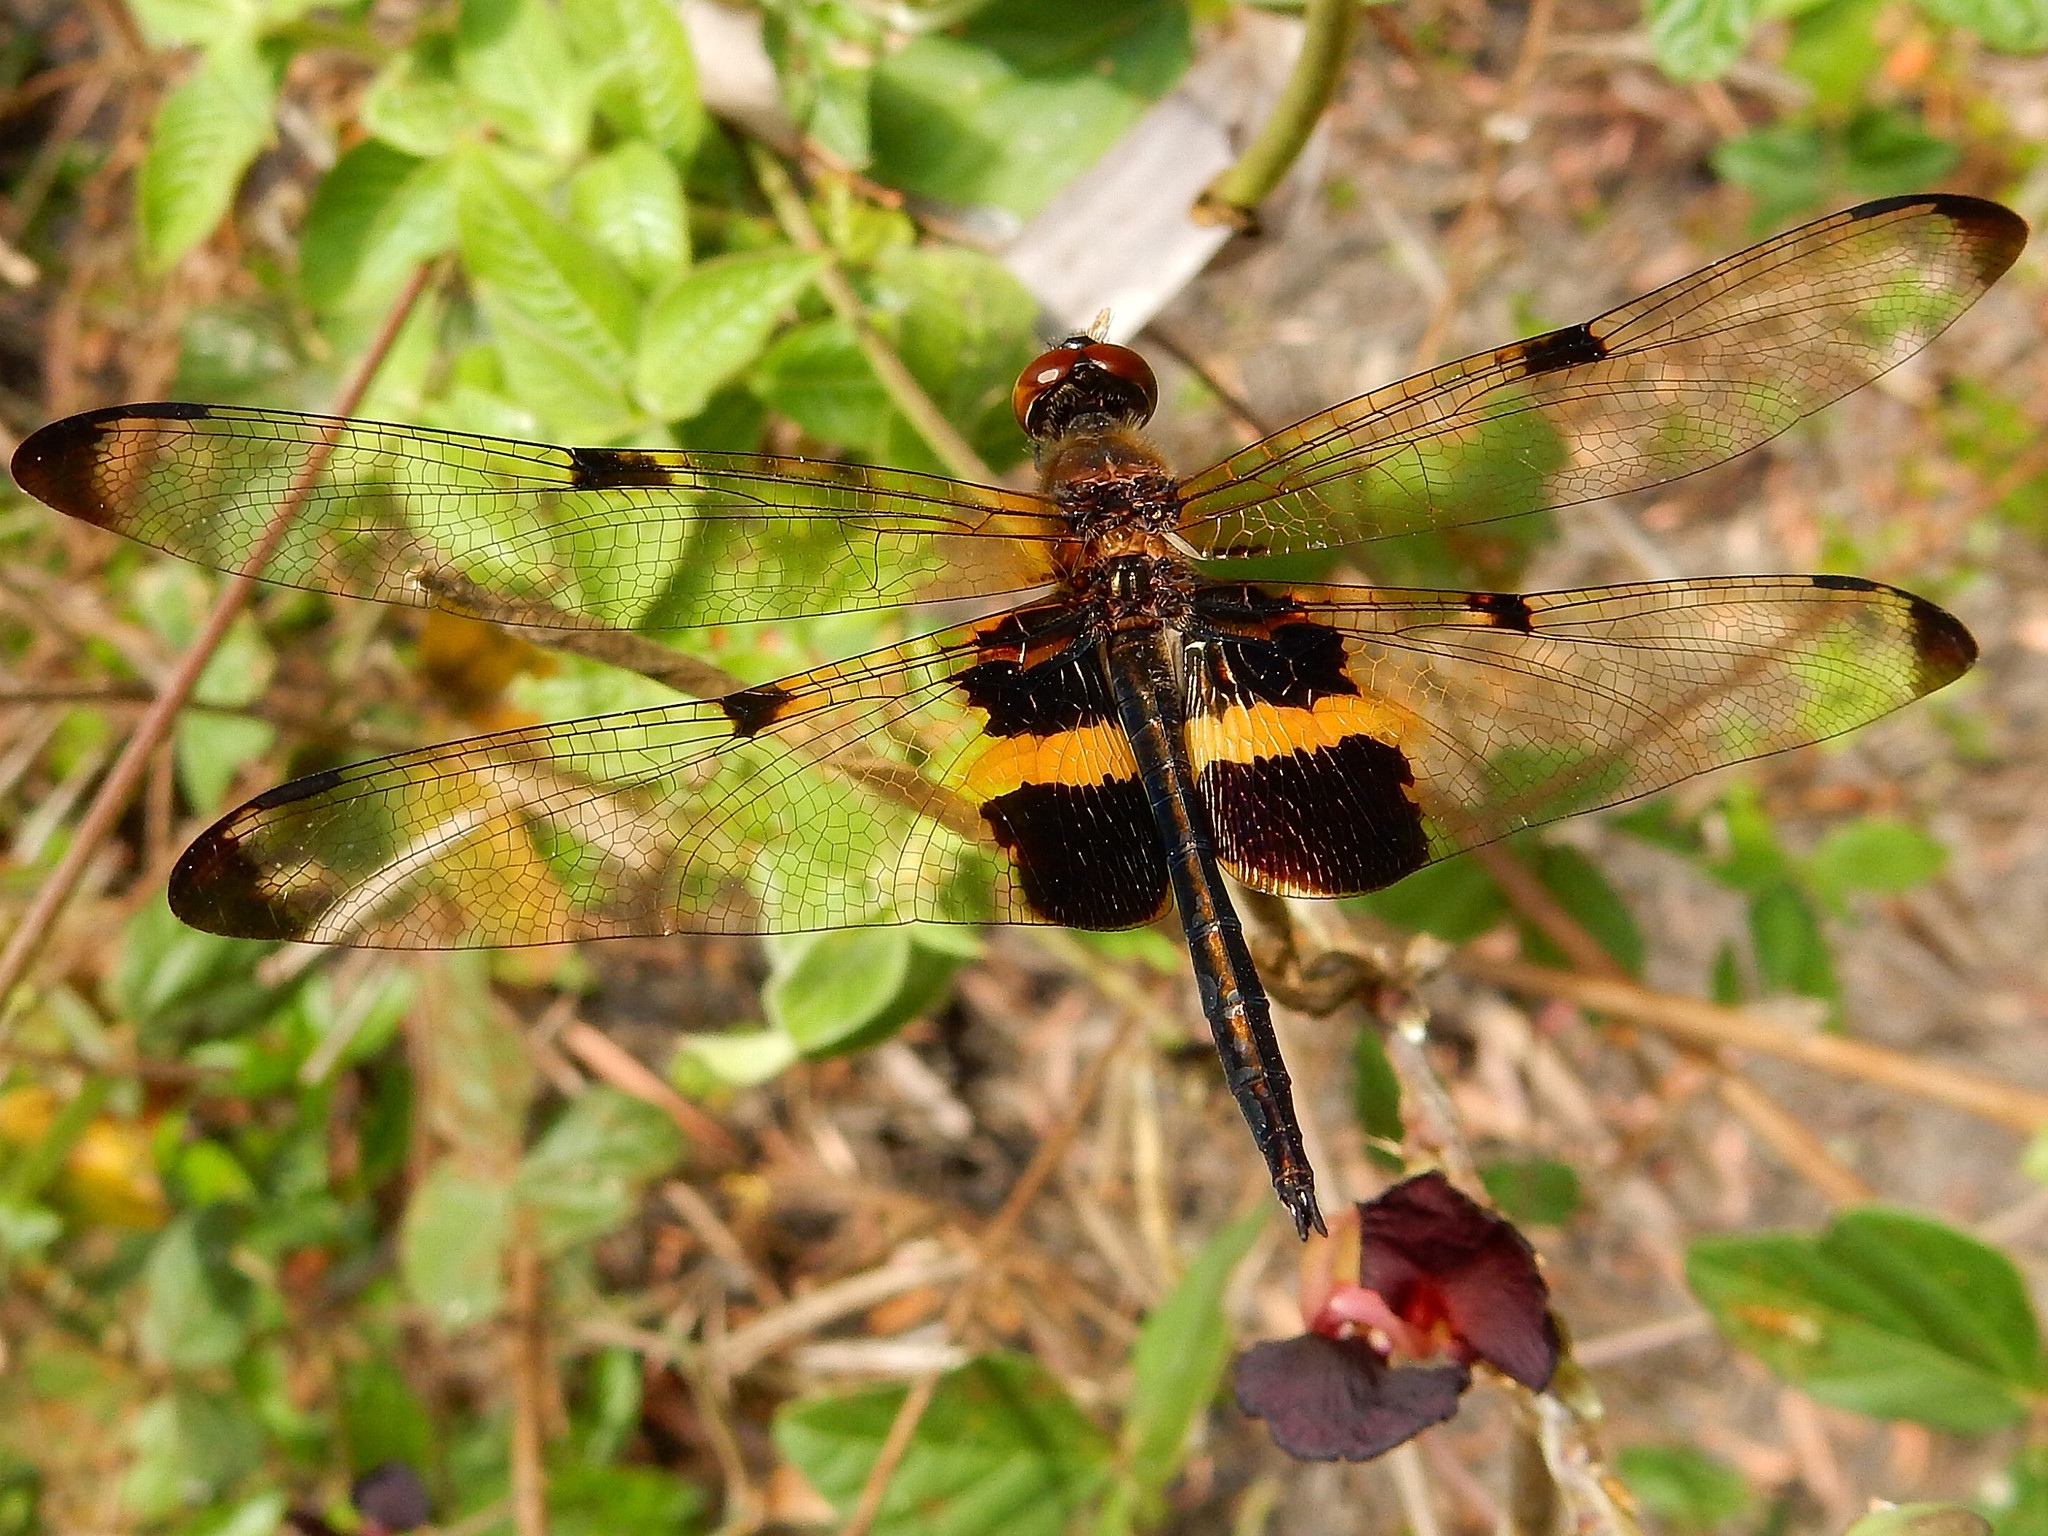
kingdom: Animalia
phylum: Arthropoda
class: Insecta
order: Odonata
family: Libellulidae
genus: Rhyothemis
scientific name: Rhyothemis phyllis
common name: Yellow-barred flutterer
